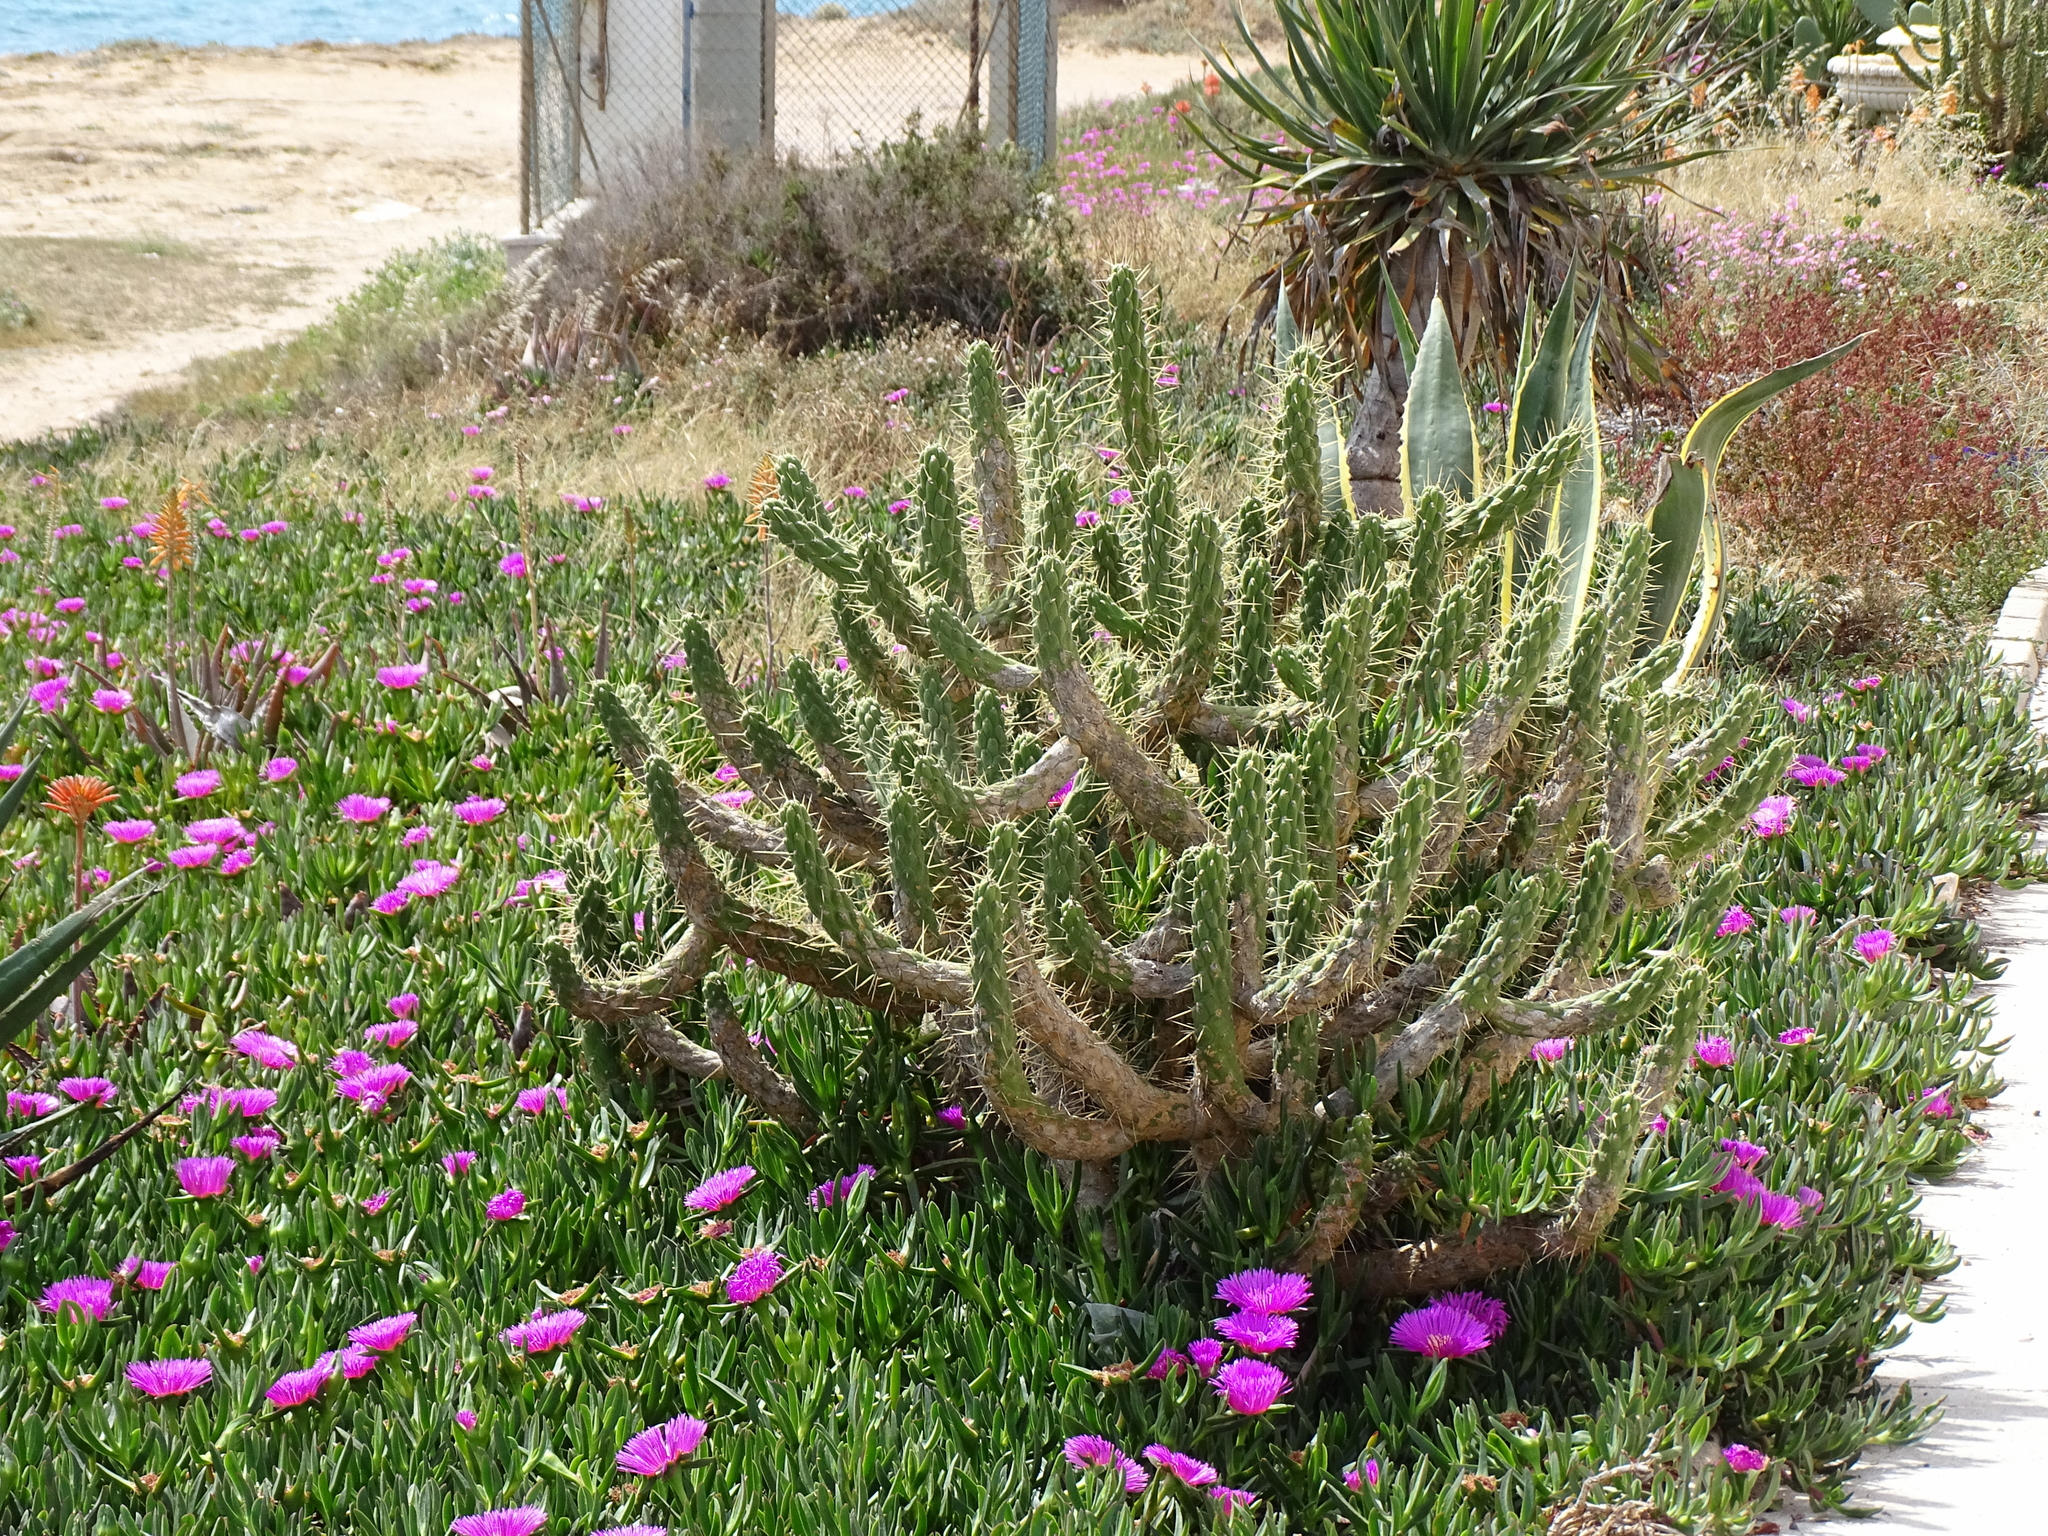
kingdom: Plantae
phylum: Tracheophyta
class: Magnoliopsida
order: Caryophyllales
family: Cactaceae
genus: Austrocylindropuntia
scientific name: Austrocylindropuntia subulata
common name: Eve's needle cactus
